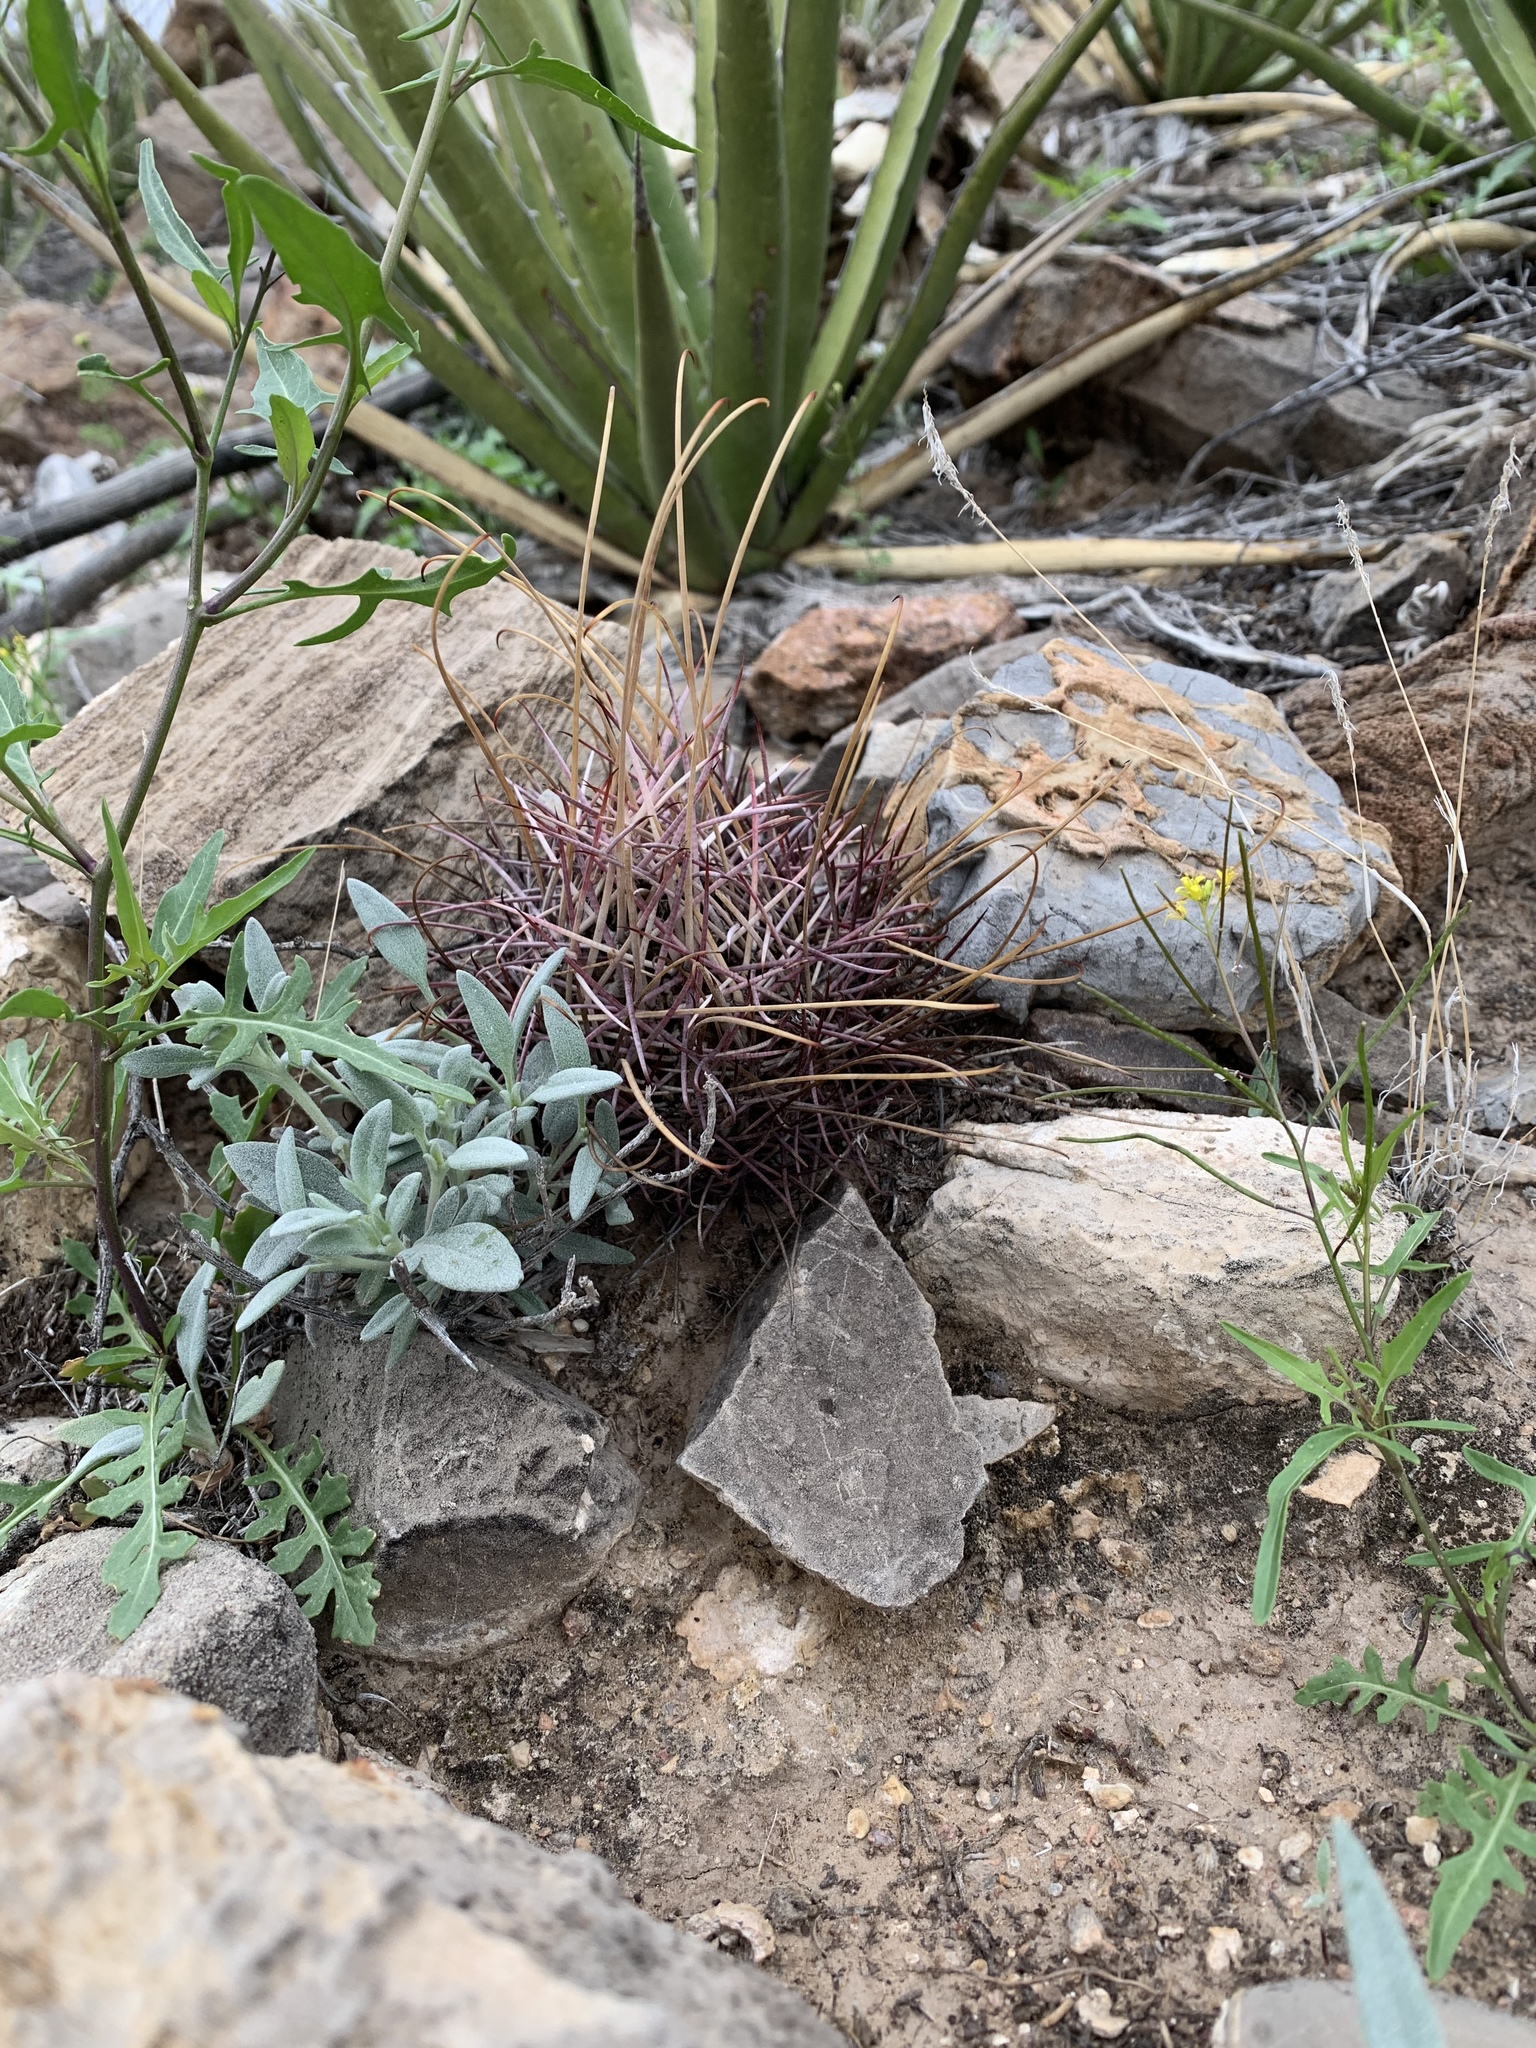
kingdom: Plantae
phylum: Tracheophyta
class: Magnoliopsida
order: Caryophyllales
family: Cactaceae
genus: Ferocactus
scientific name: Ferocactus uncinatus
